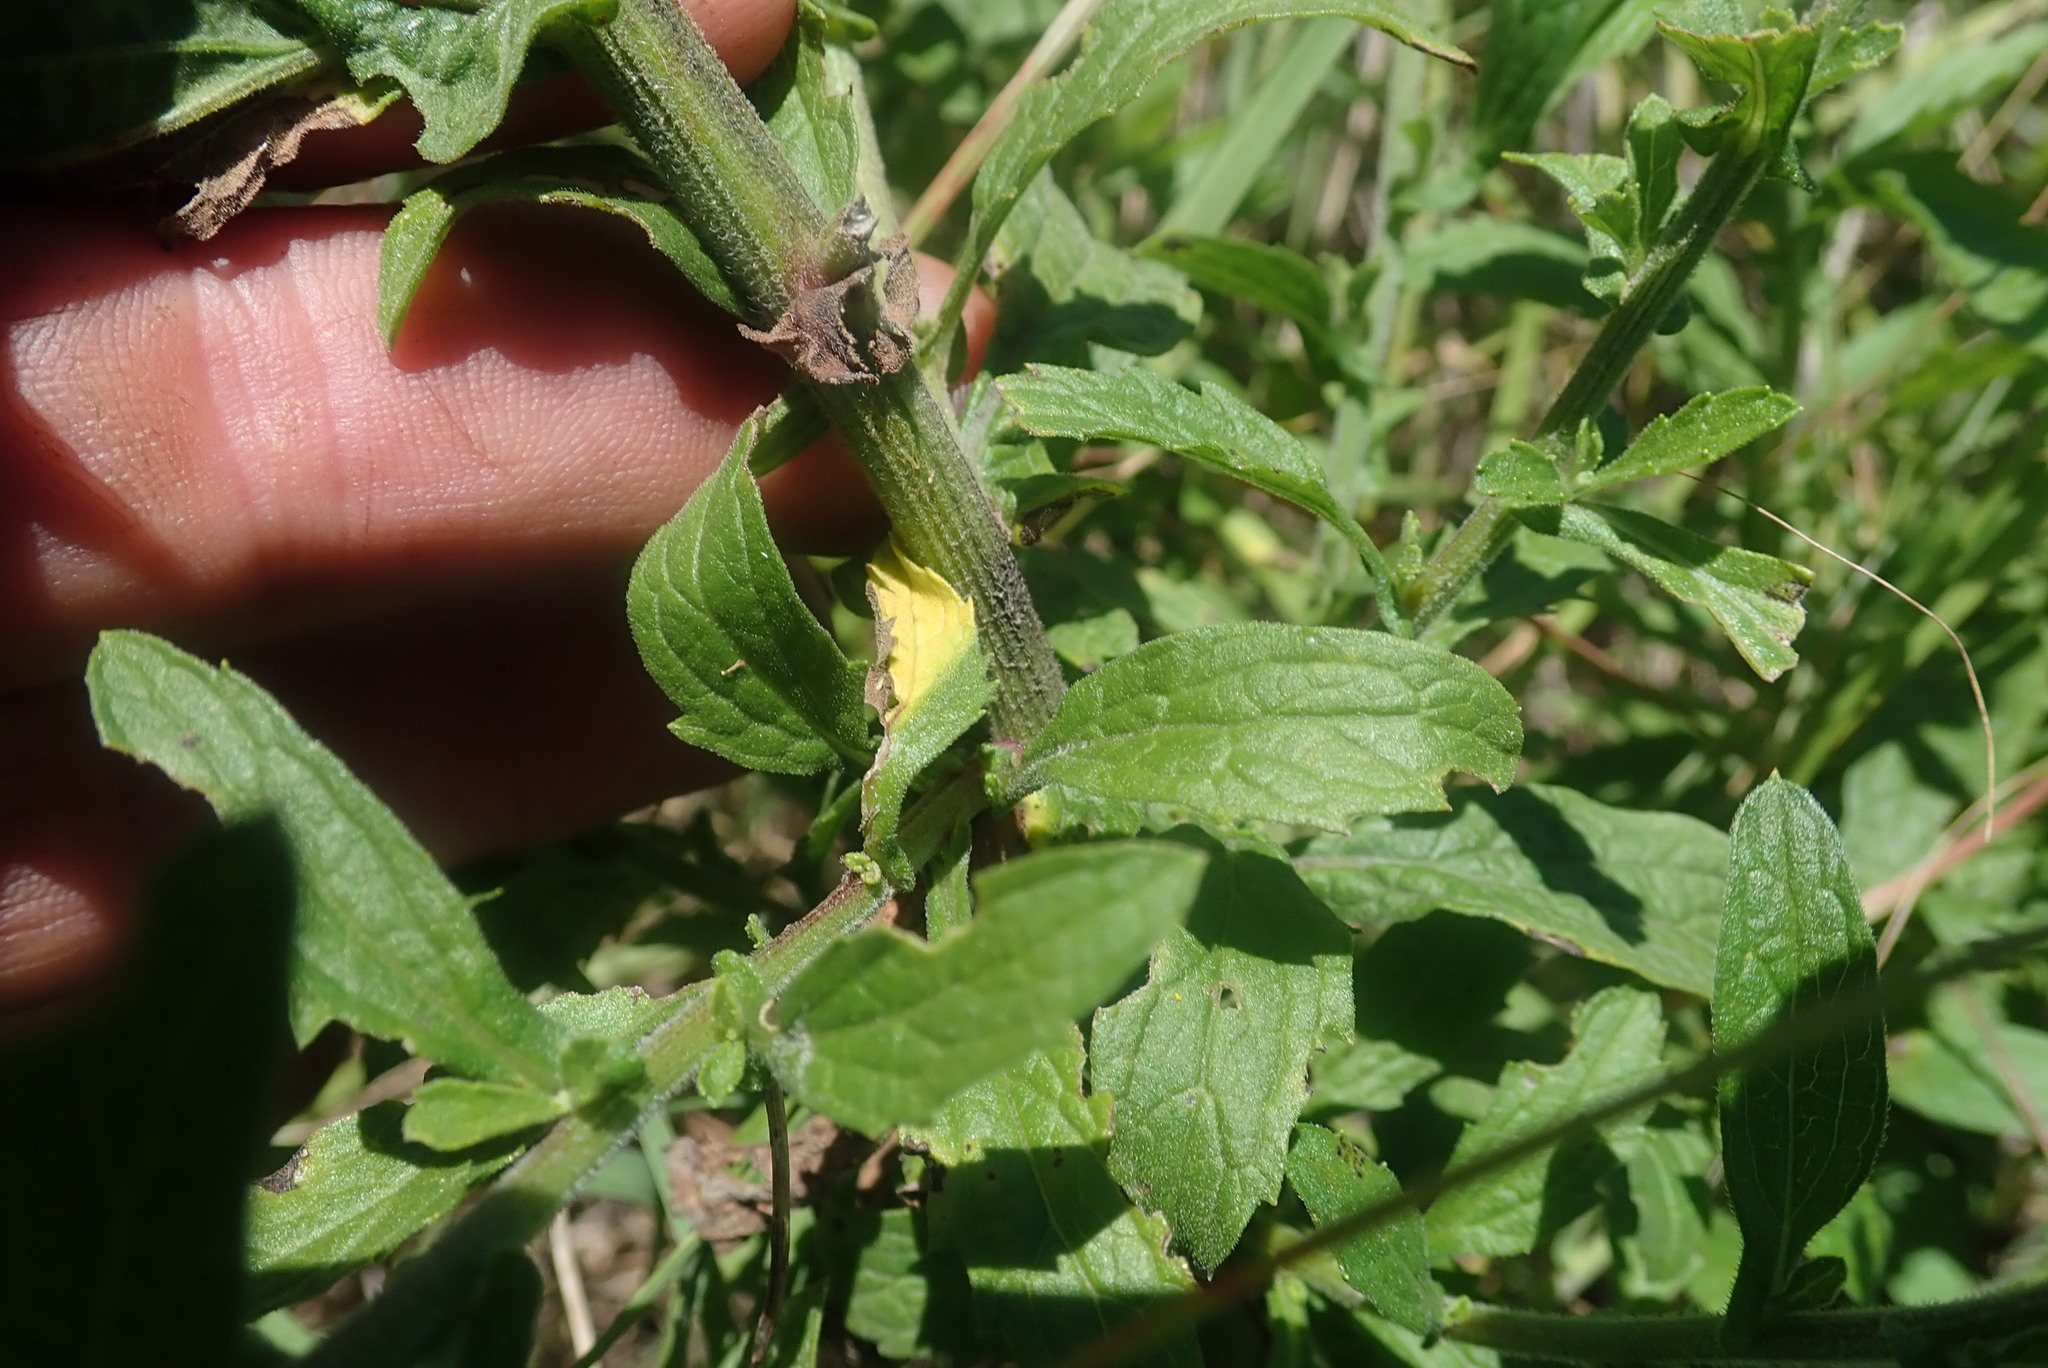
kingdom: Plantae
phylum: Tracheophyta
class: Magnoliopsida
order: Asterales
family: Asteraceae
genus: Nidorella
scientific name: Nidorella auriculata
